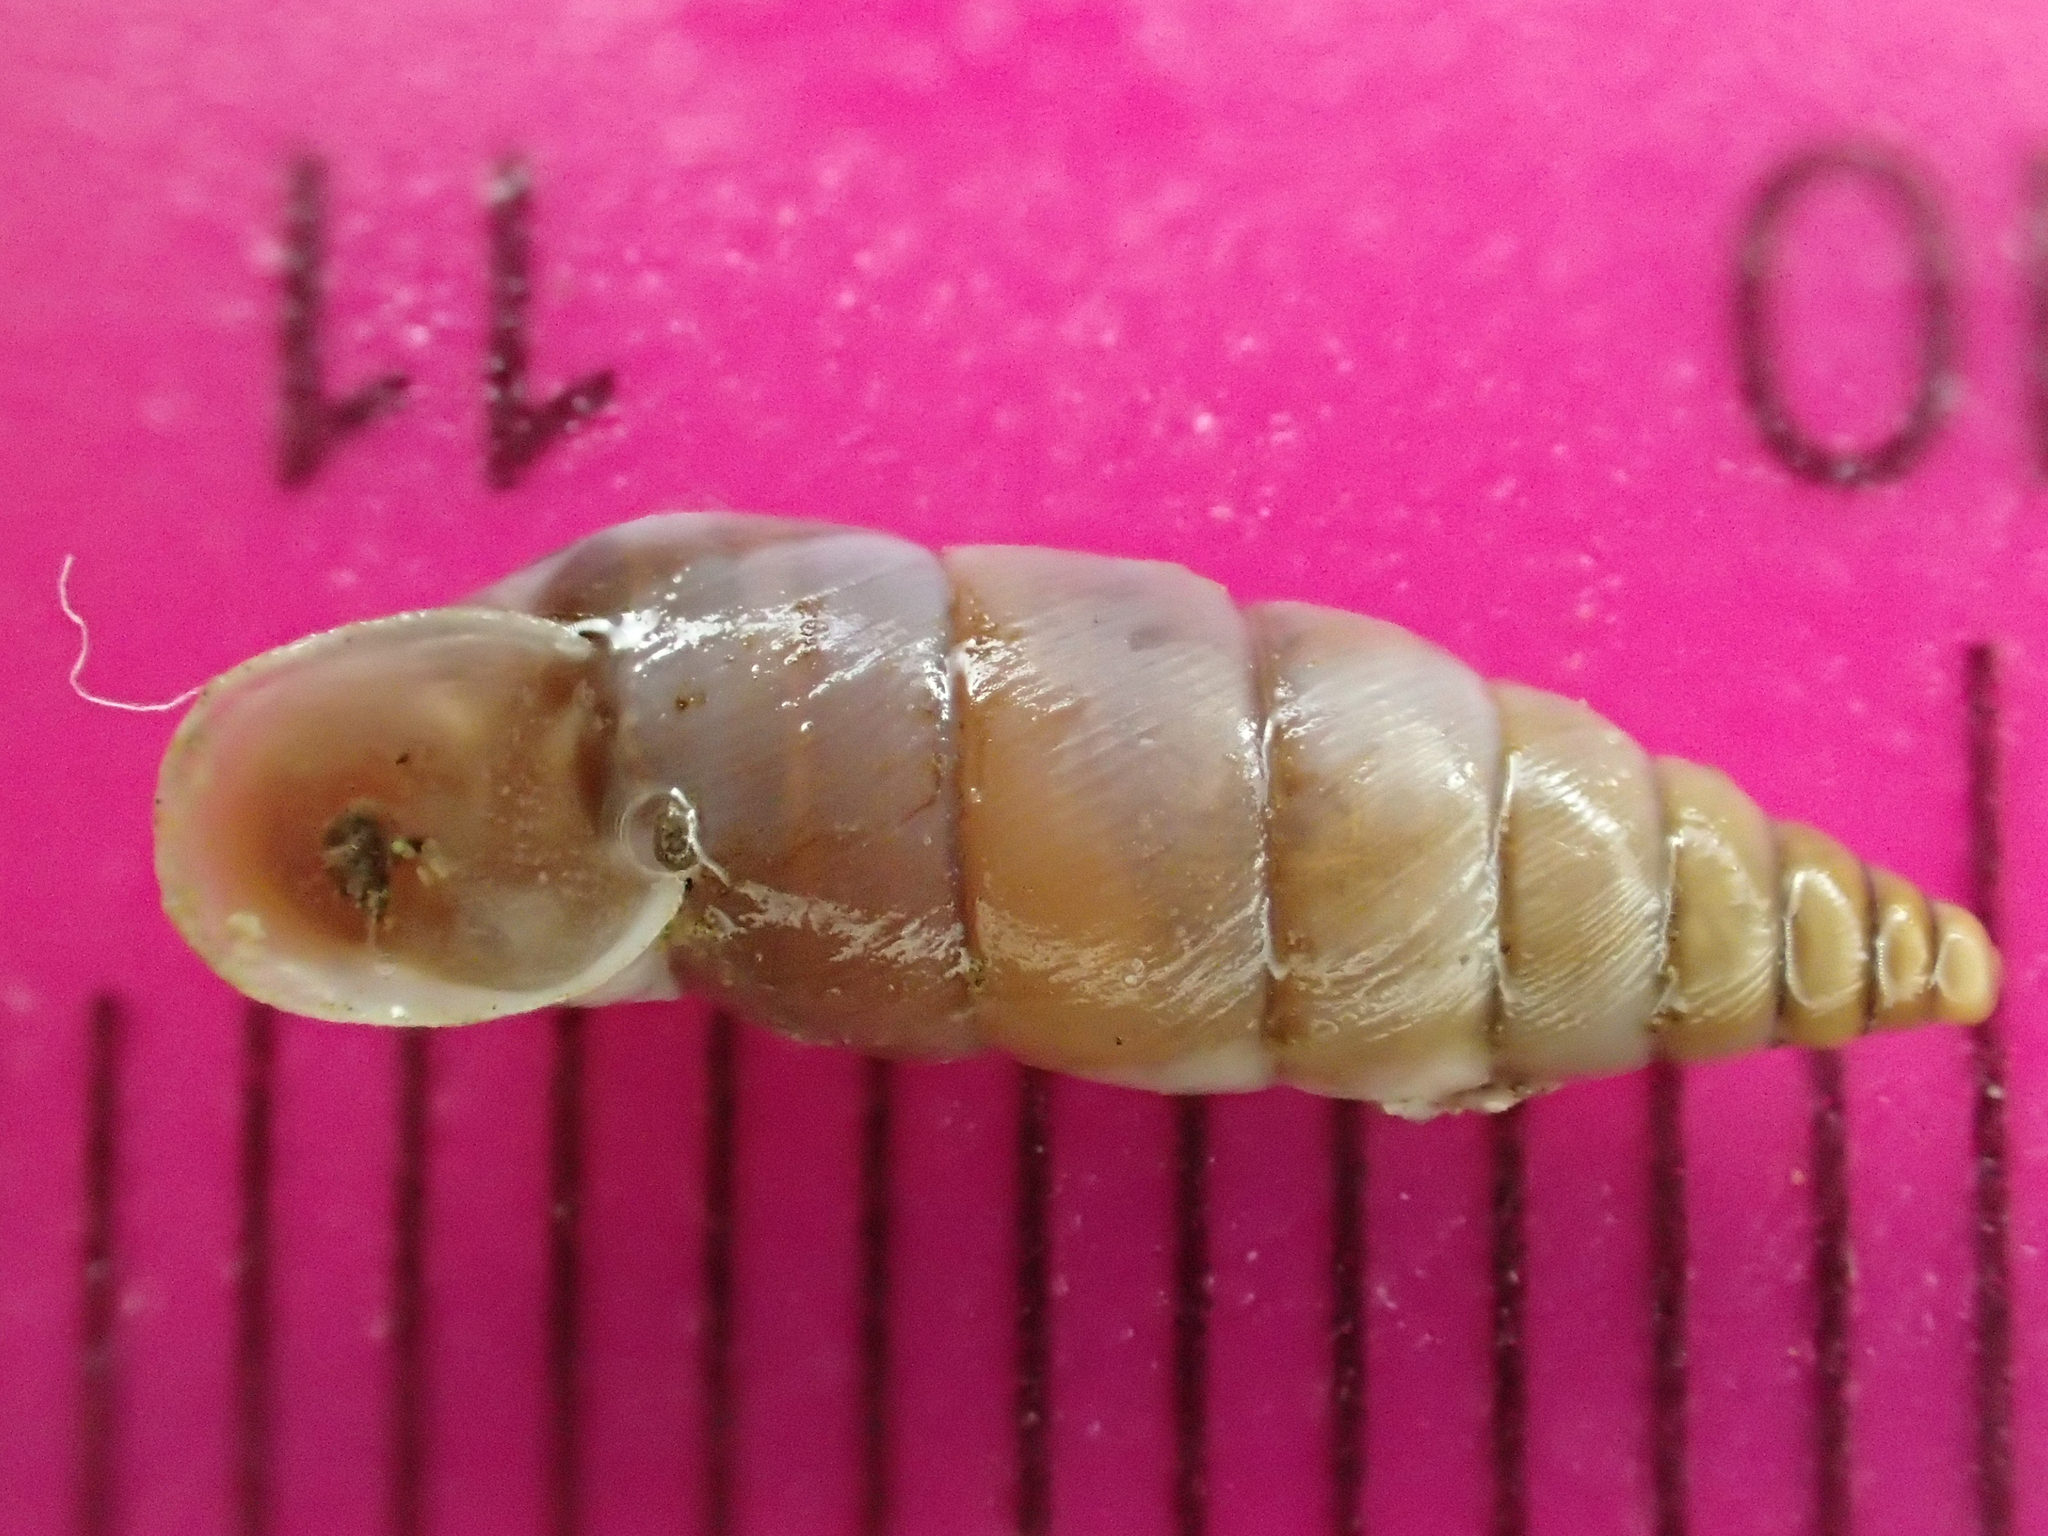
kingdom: Animalia
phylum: Mollusca
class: Gastropoda
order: Stylommatophora
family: Chondrinidae
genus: Solatopupa
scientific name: Solatopupa similis
